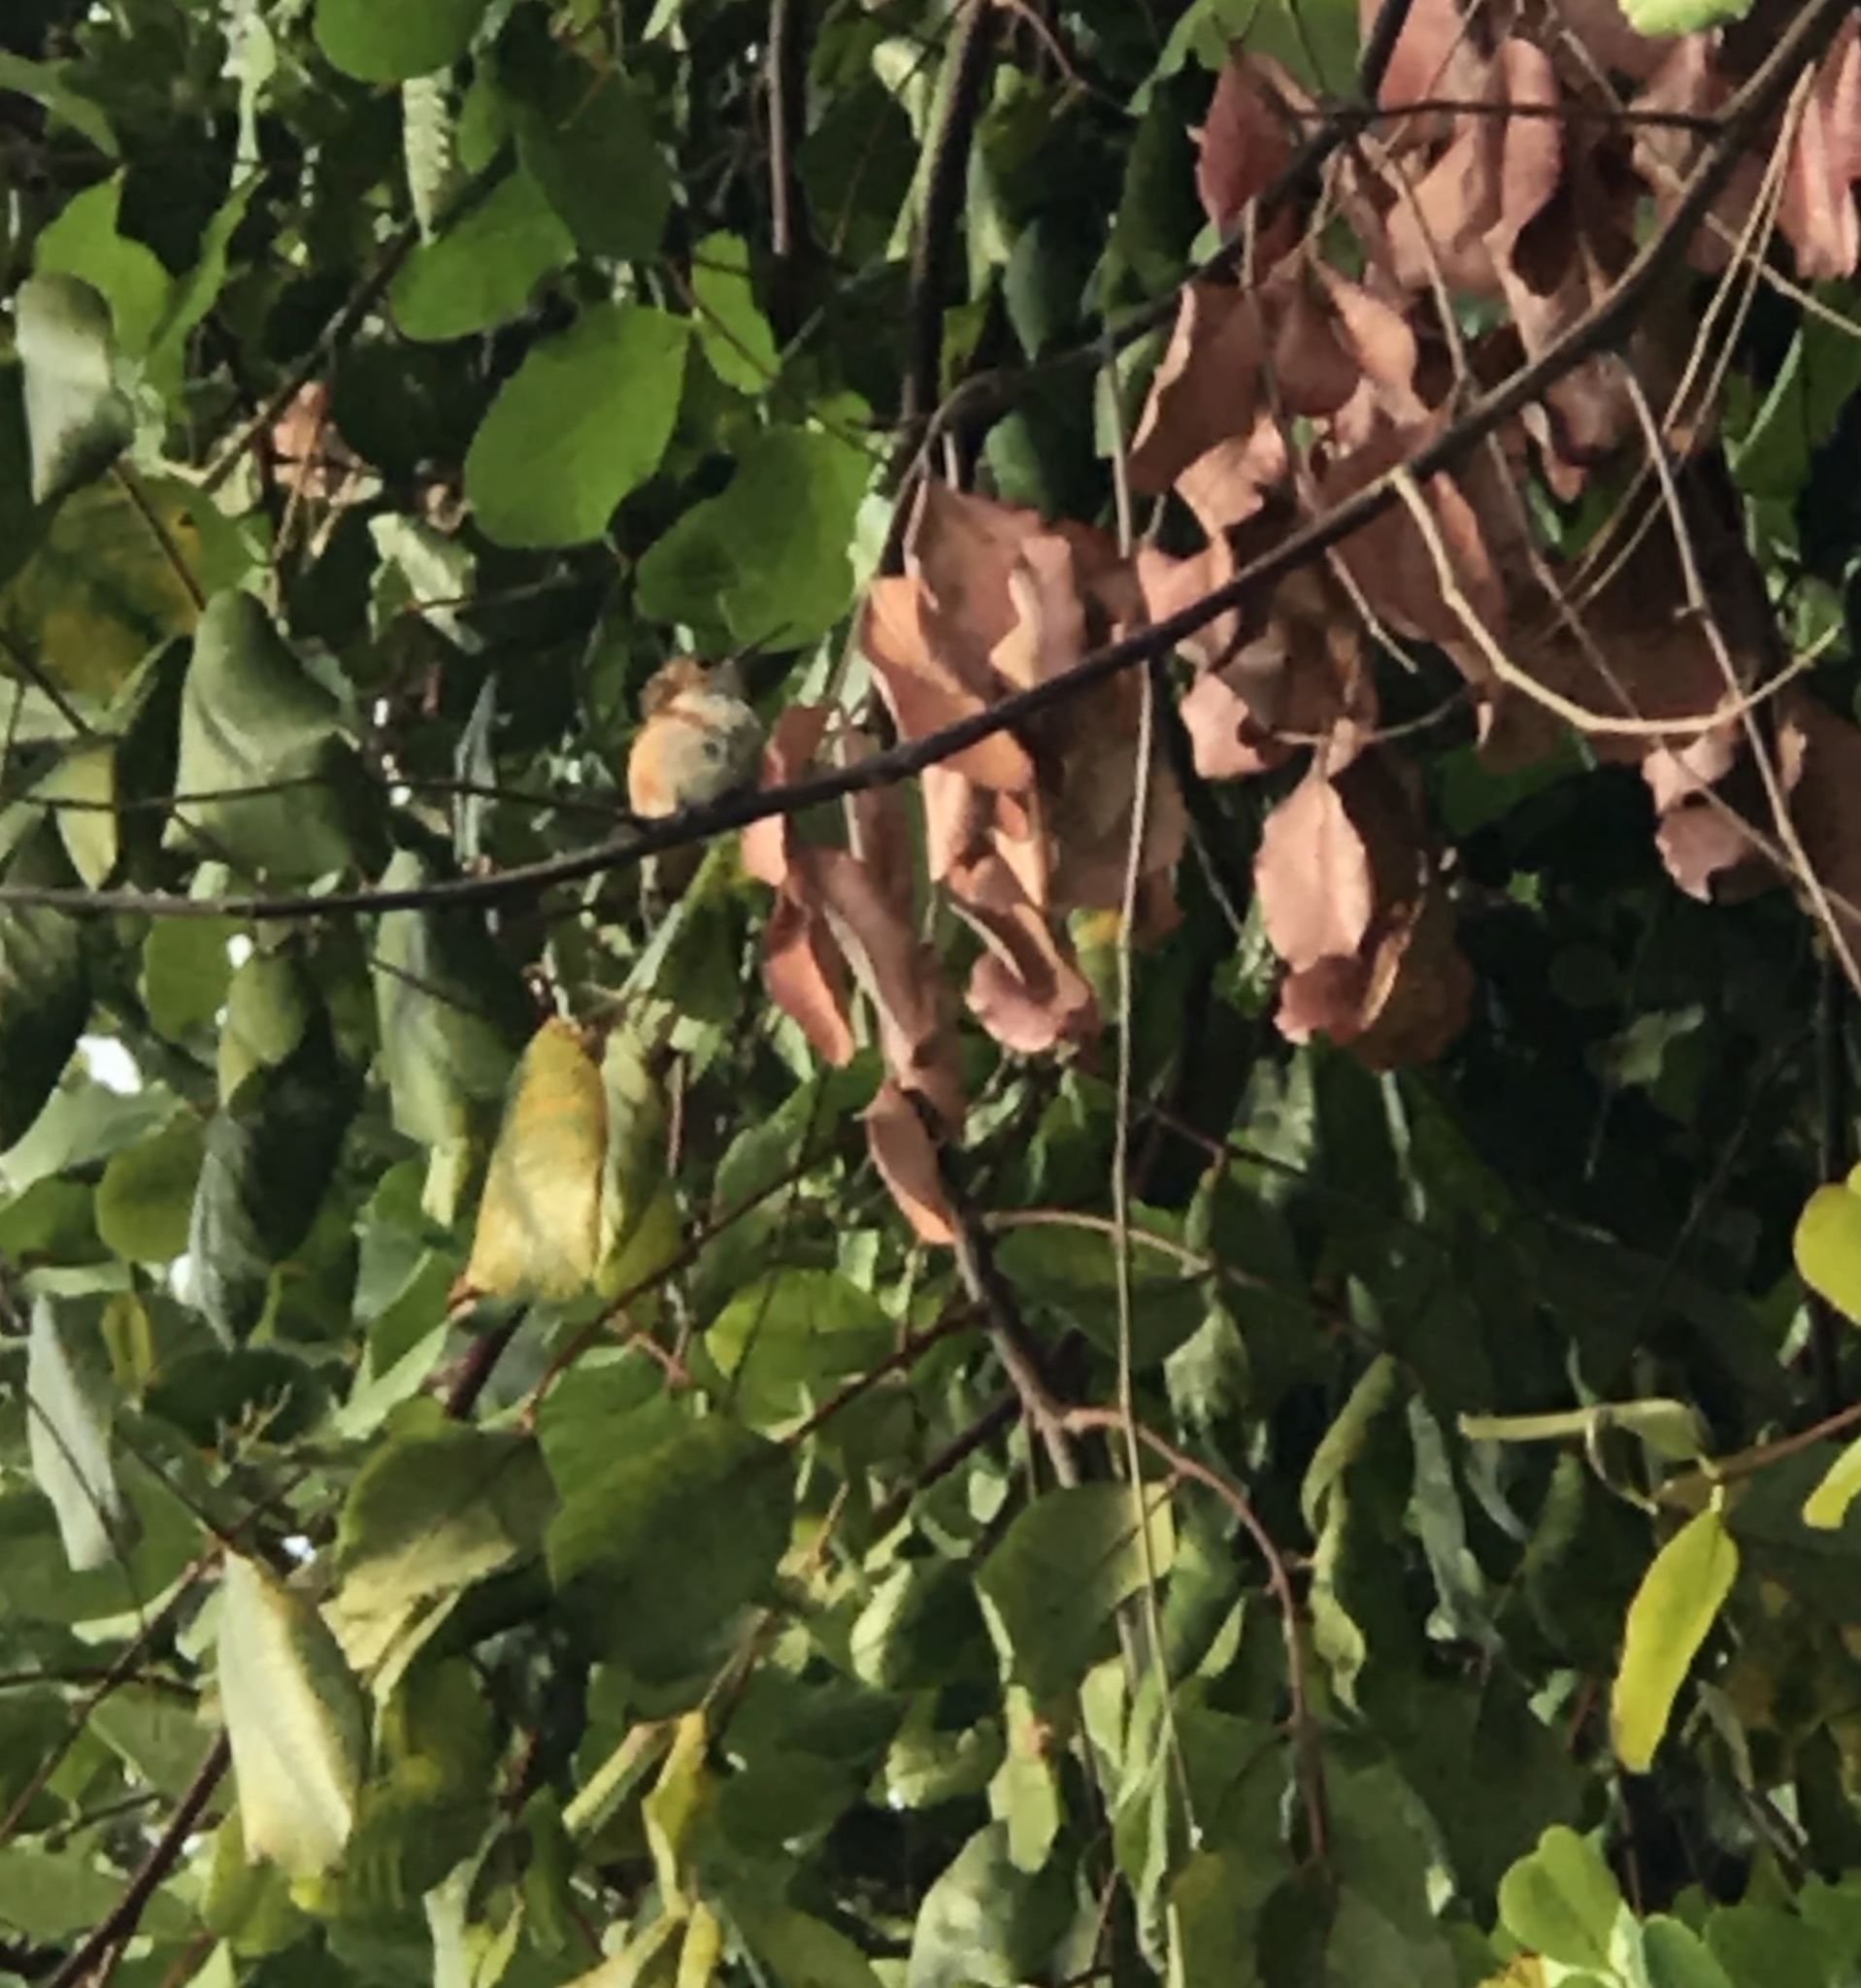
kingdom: Animalia
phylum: Chordata
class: Aves
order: Apodiformes
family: Trochilidae
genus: Selasphorus
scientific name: Selasphorus
